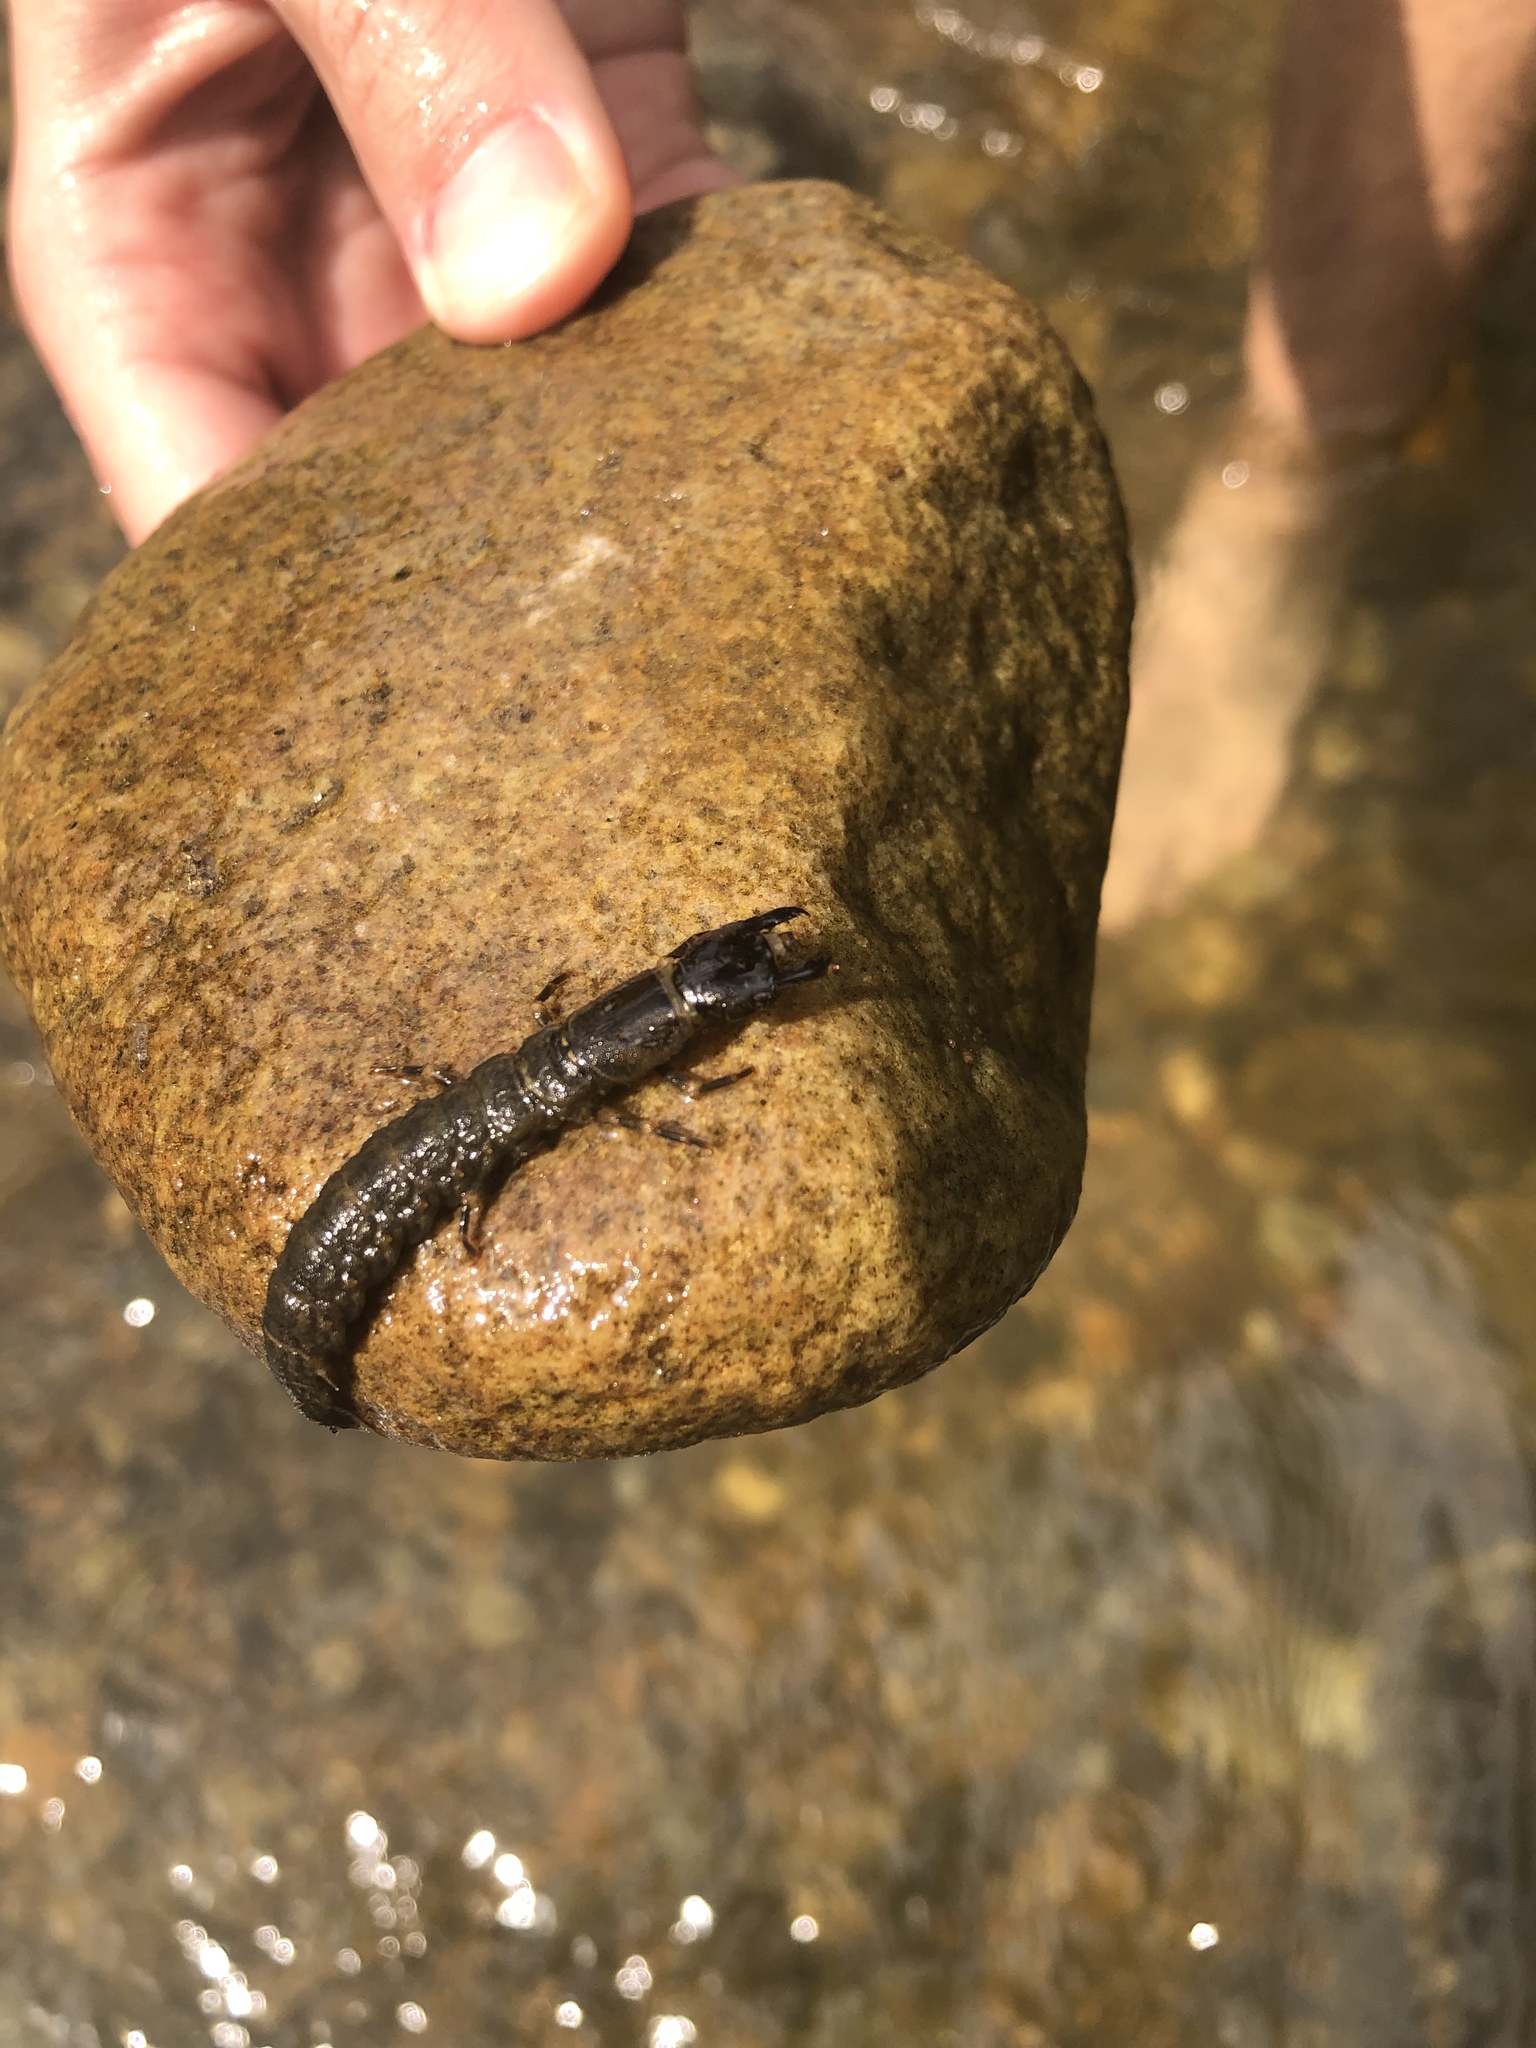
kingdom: Animalia
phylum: Arthropoda
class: Insecta
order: Megaloptera
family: Corydalidae
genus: Corydalus
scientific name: Corydalus cornutus
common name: Dobsonfly
